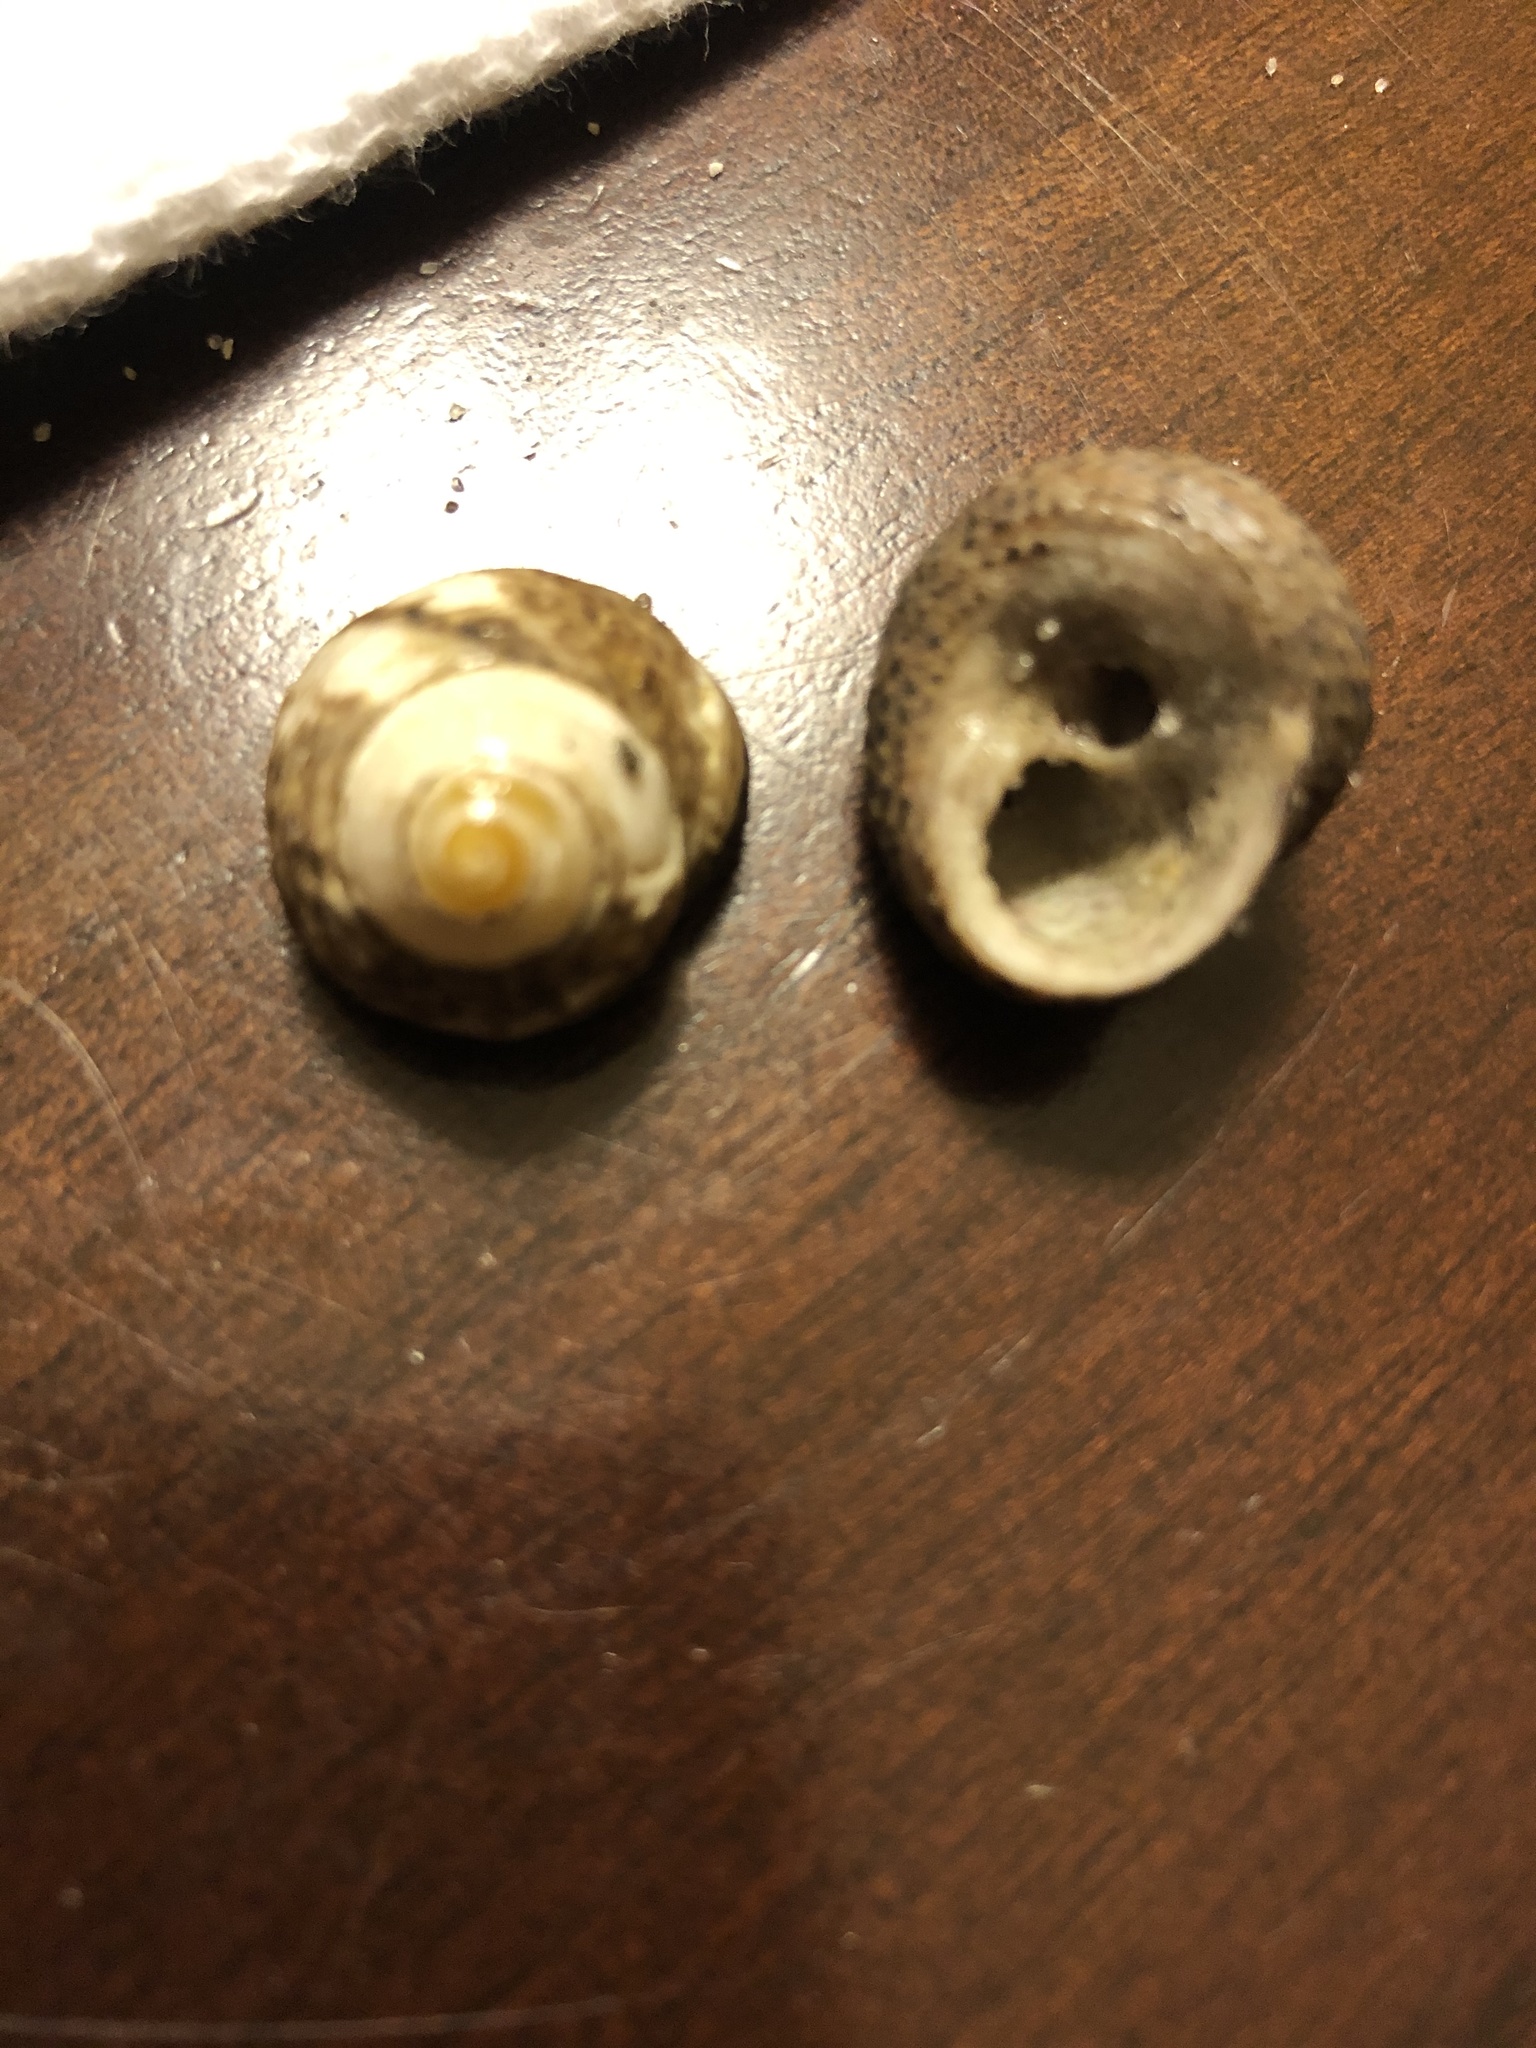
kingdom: Animalia
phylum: Mollusca
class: Gastropoda
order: Trochida
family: Tegulidae
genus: Tegula
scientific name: Tegula eiseni
